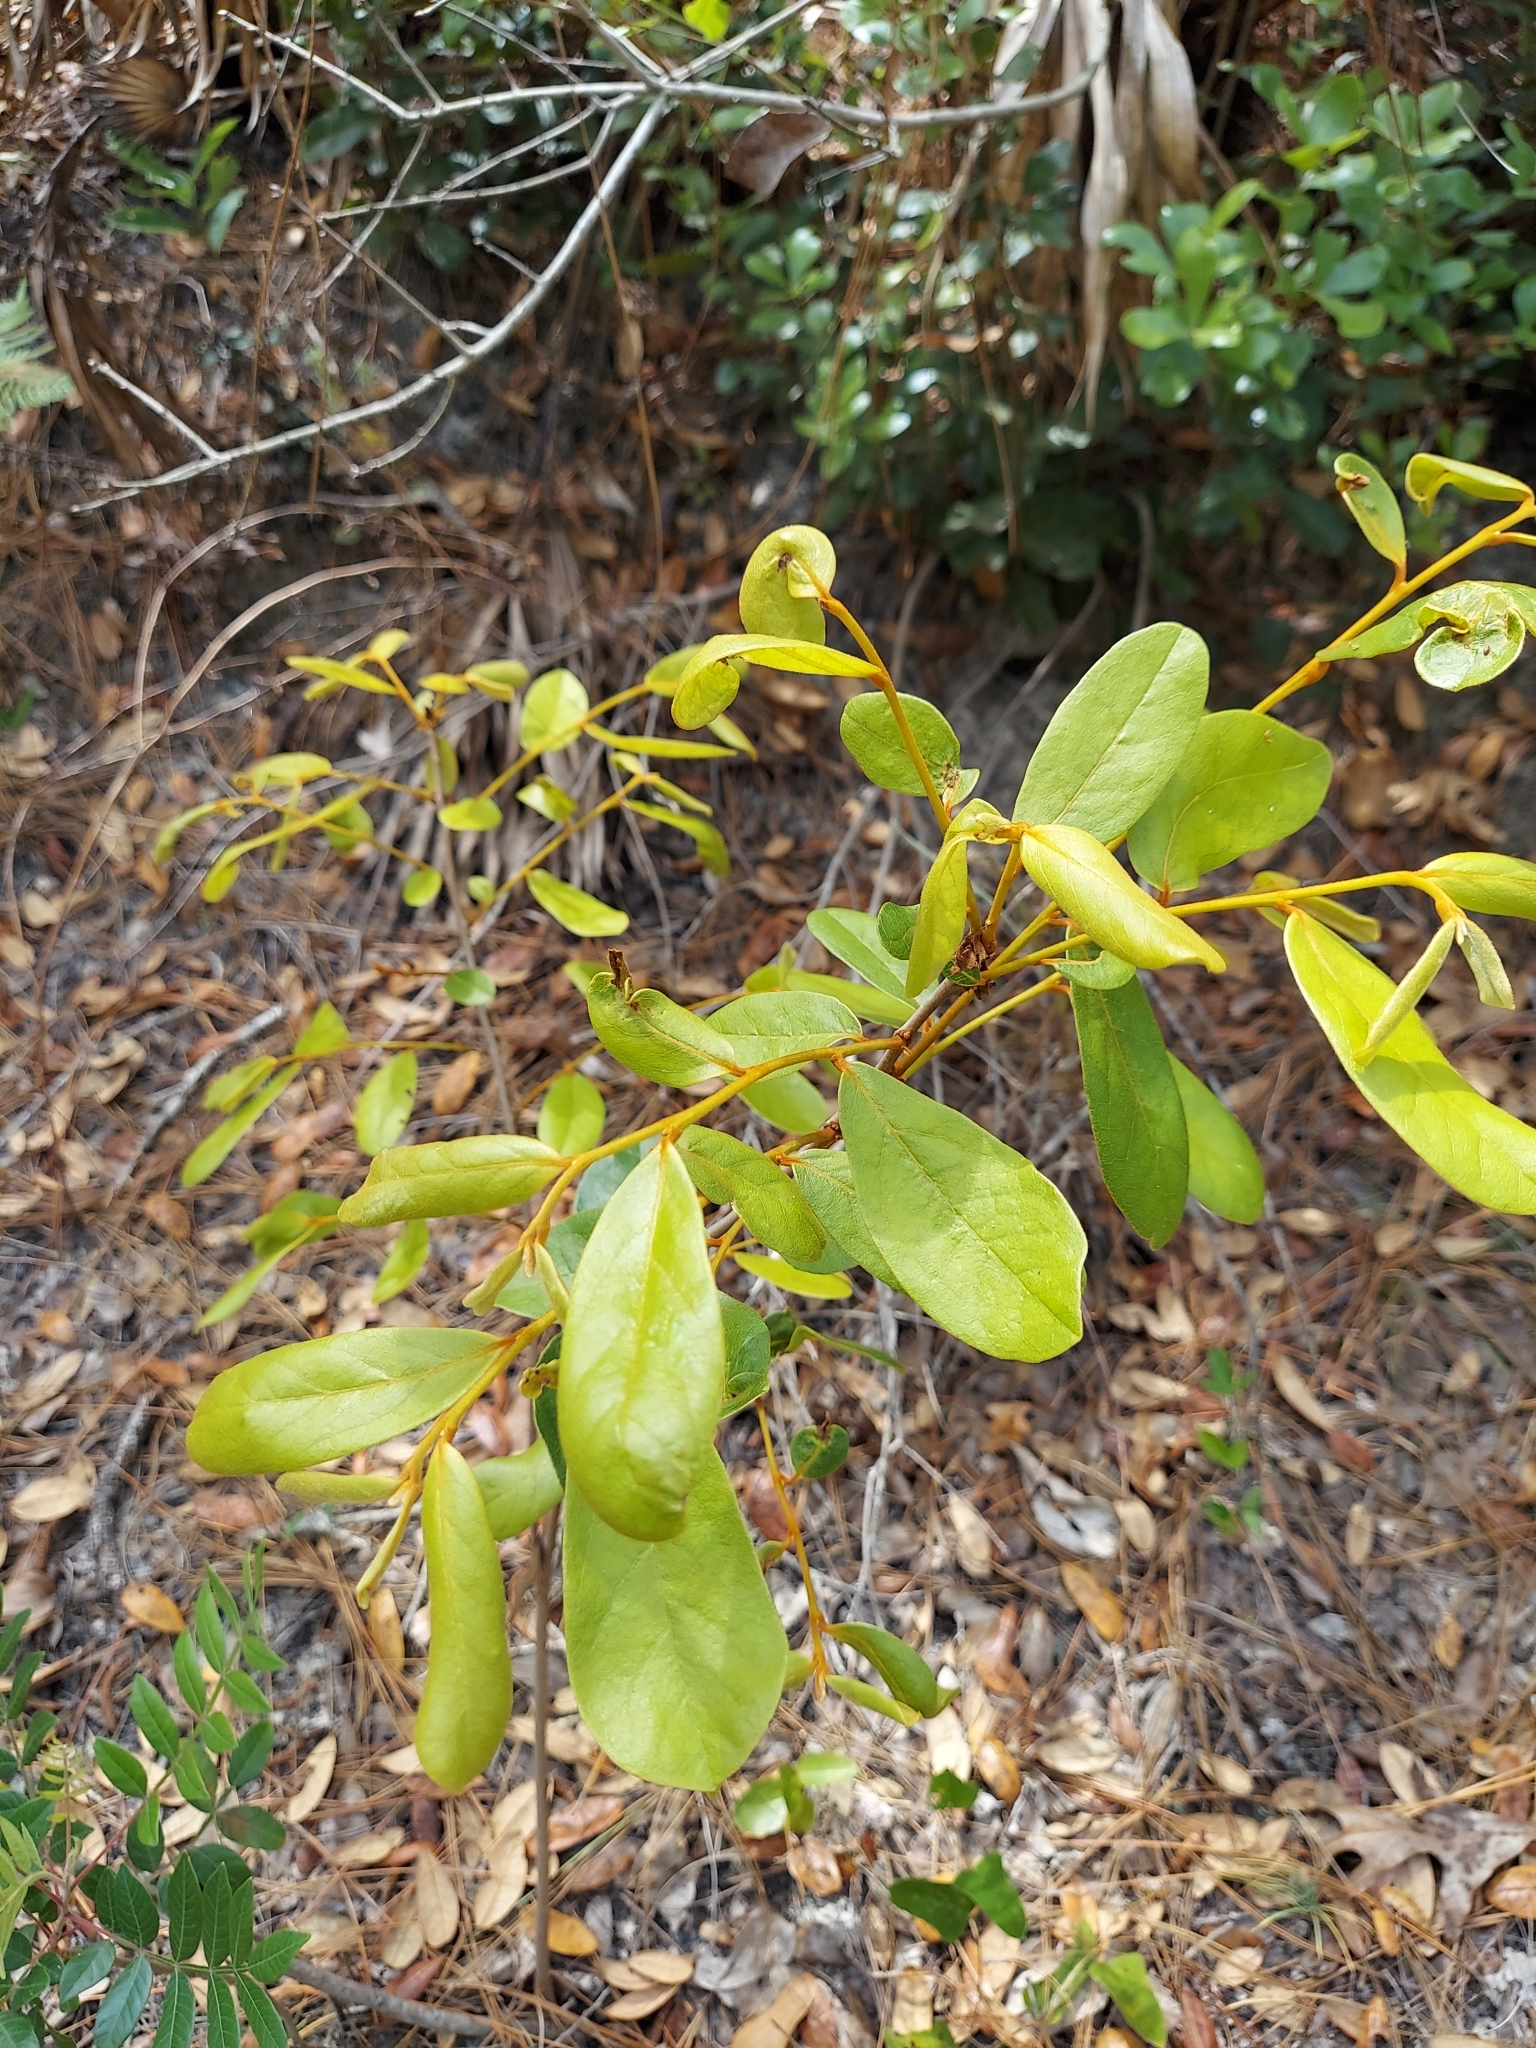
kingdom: Plantae
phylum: Tracheophyta
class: Magnoliopsida
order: Magnoliales
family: Annonaceae
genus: Asimina
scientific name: Asimina obovata
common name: Flag pawpaw
